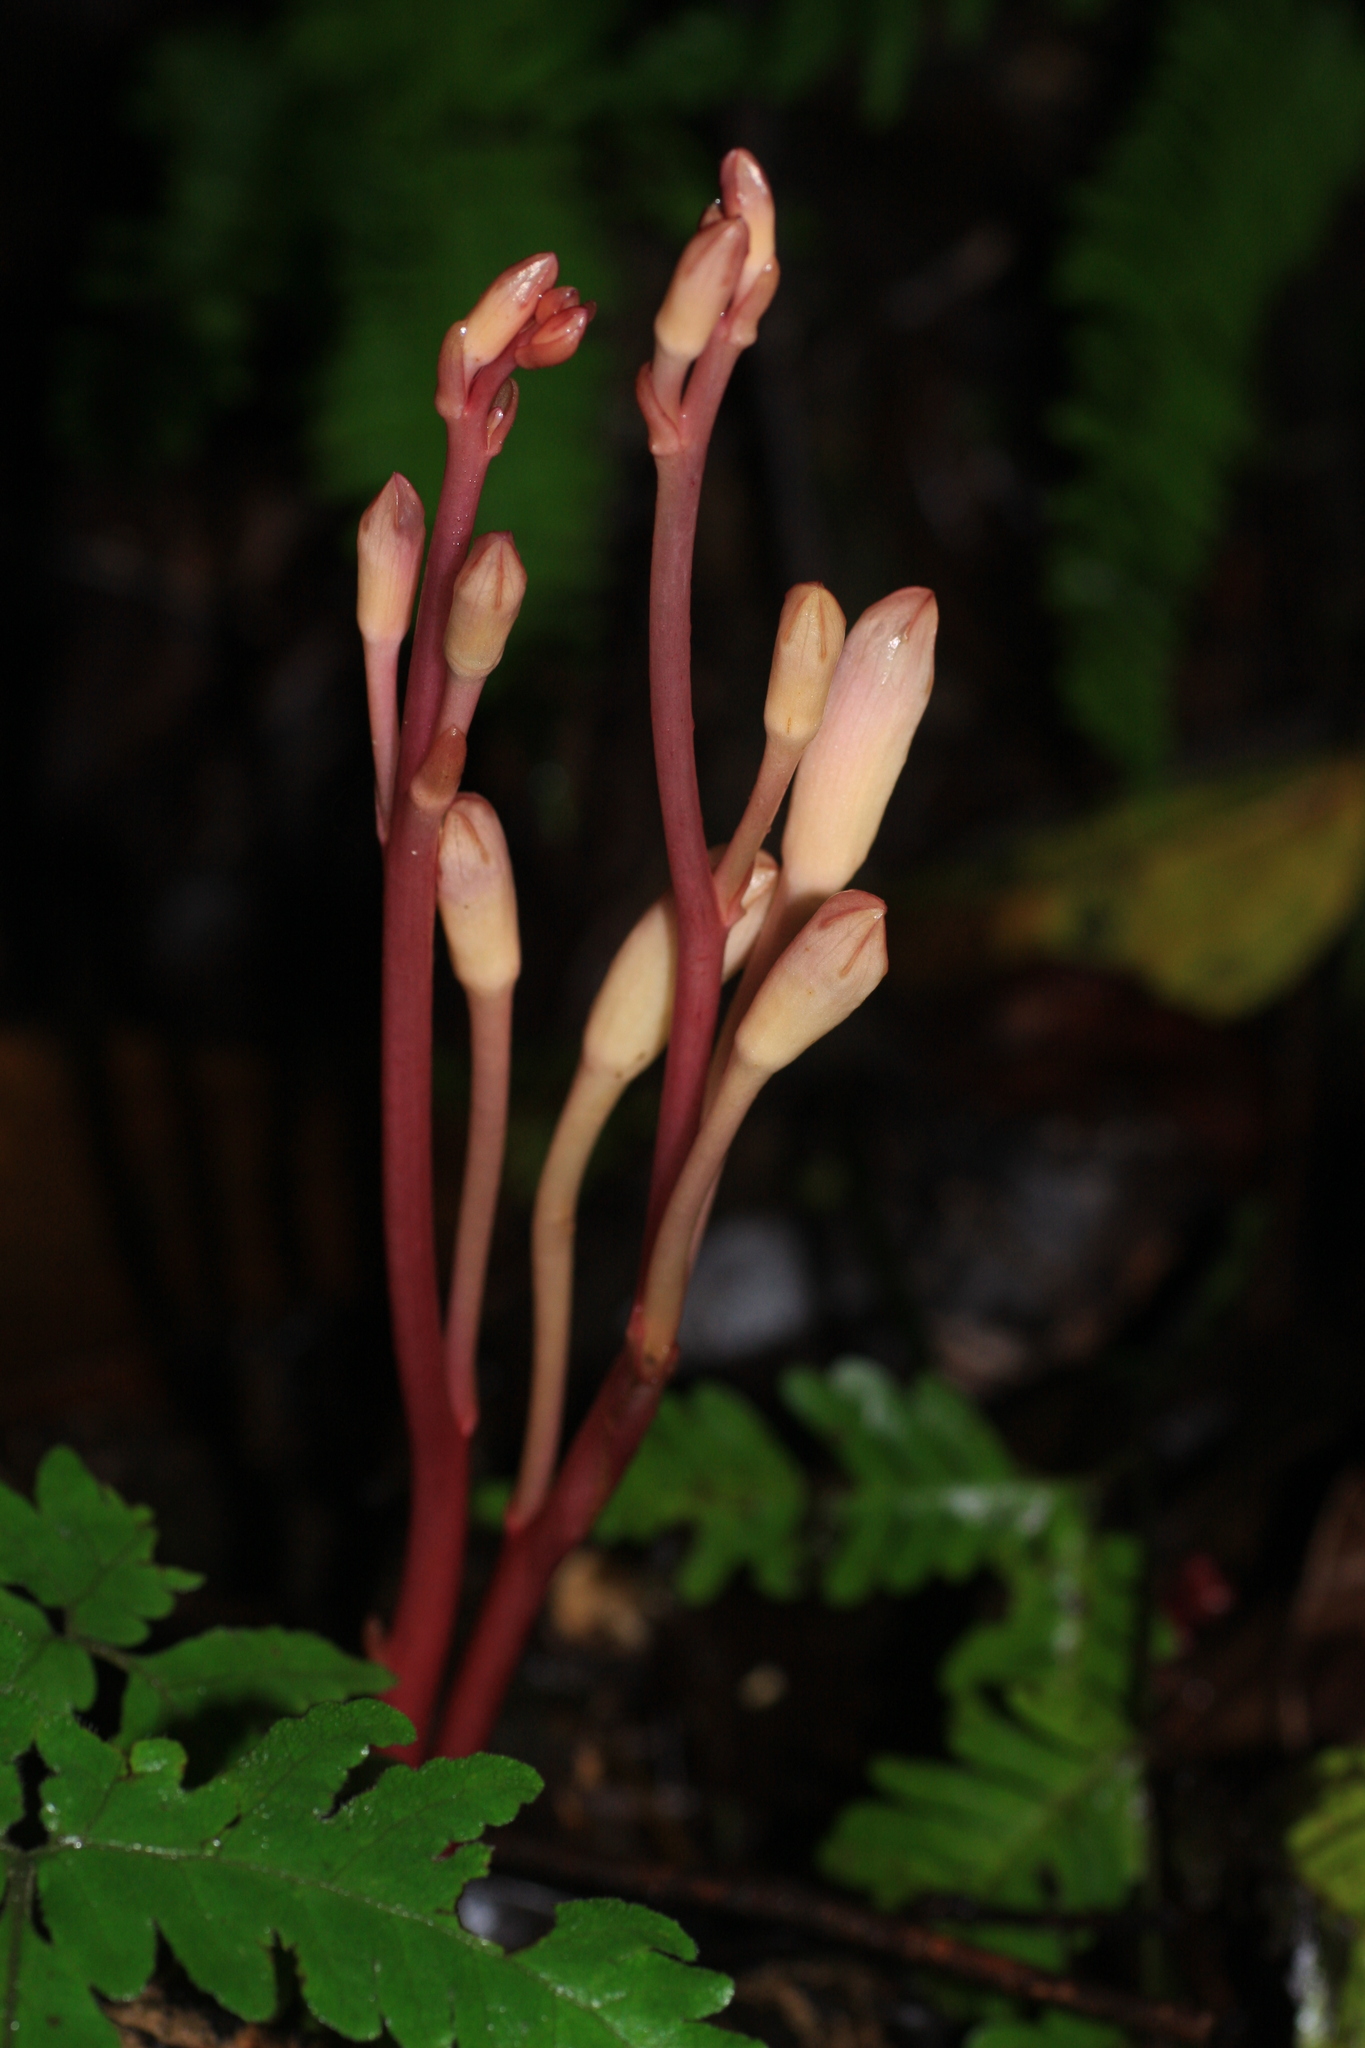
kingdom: Plantae
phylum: Tracheophyta
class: Magnoliopsida
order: Lamiales
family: Orobanchaceae
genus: Christisonia
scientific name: Christisonia tubulosa
